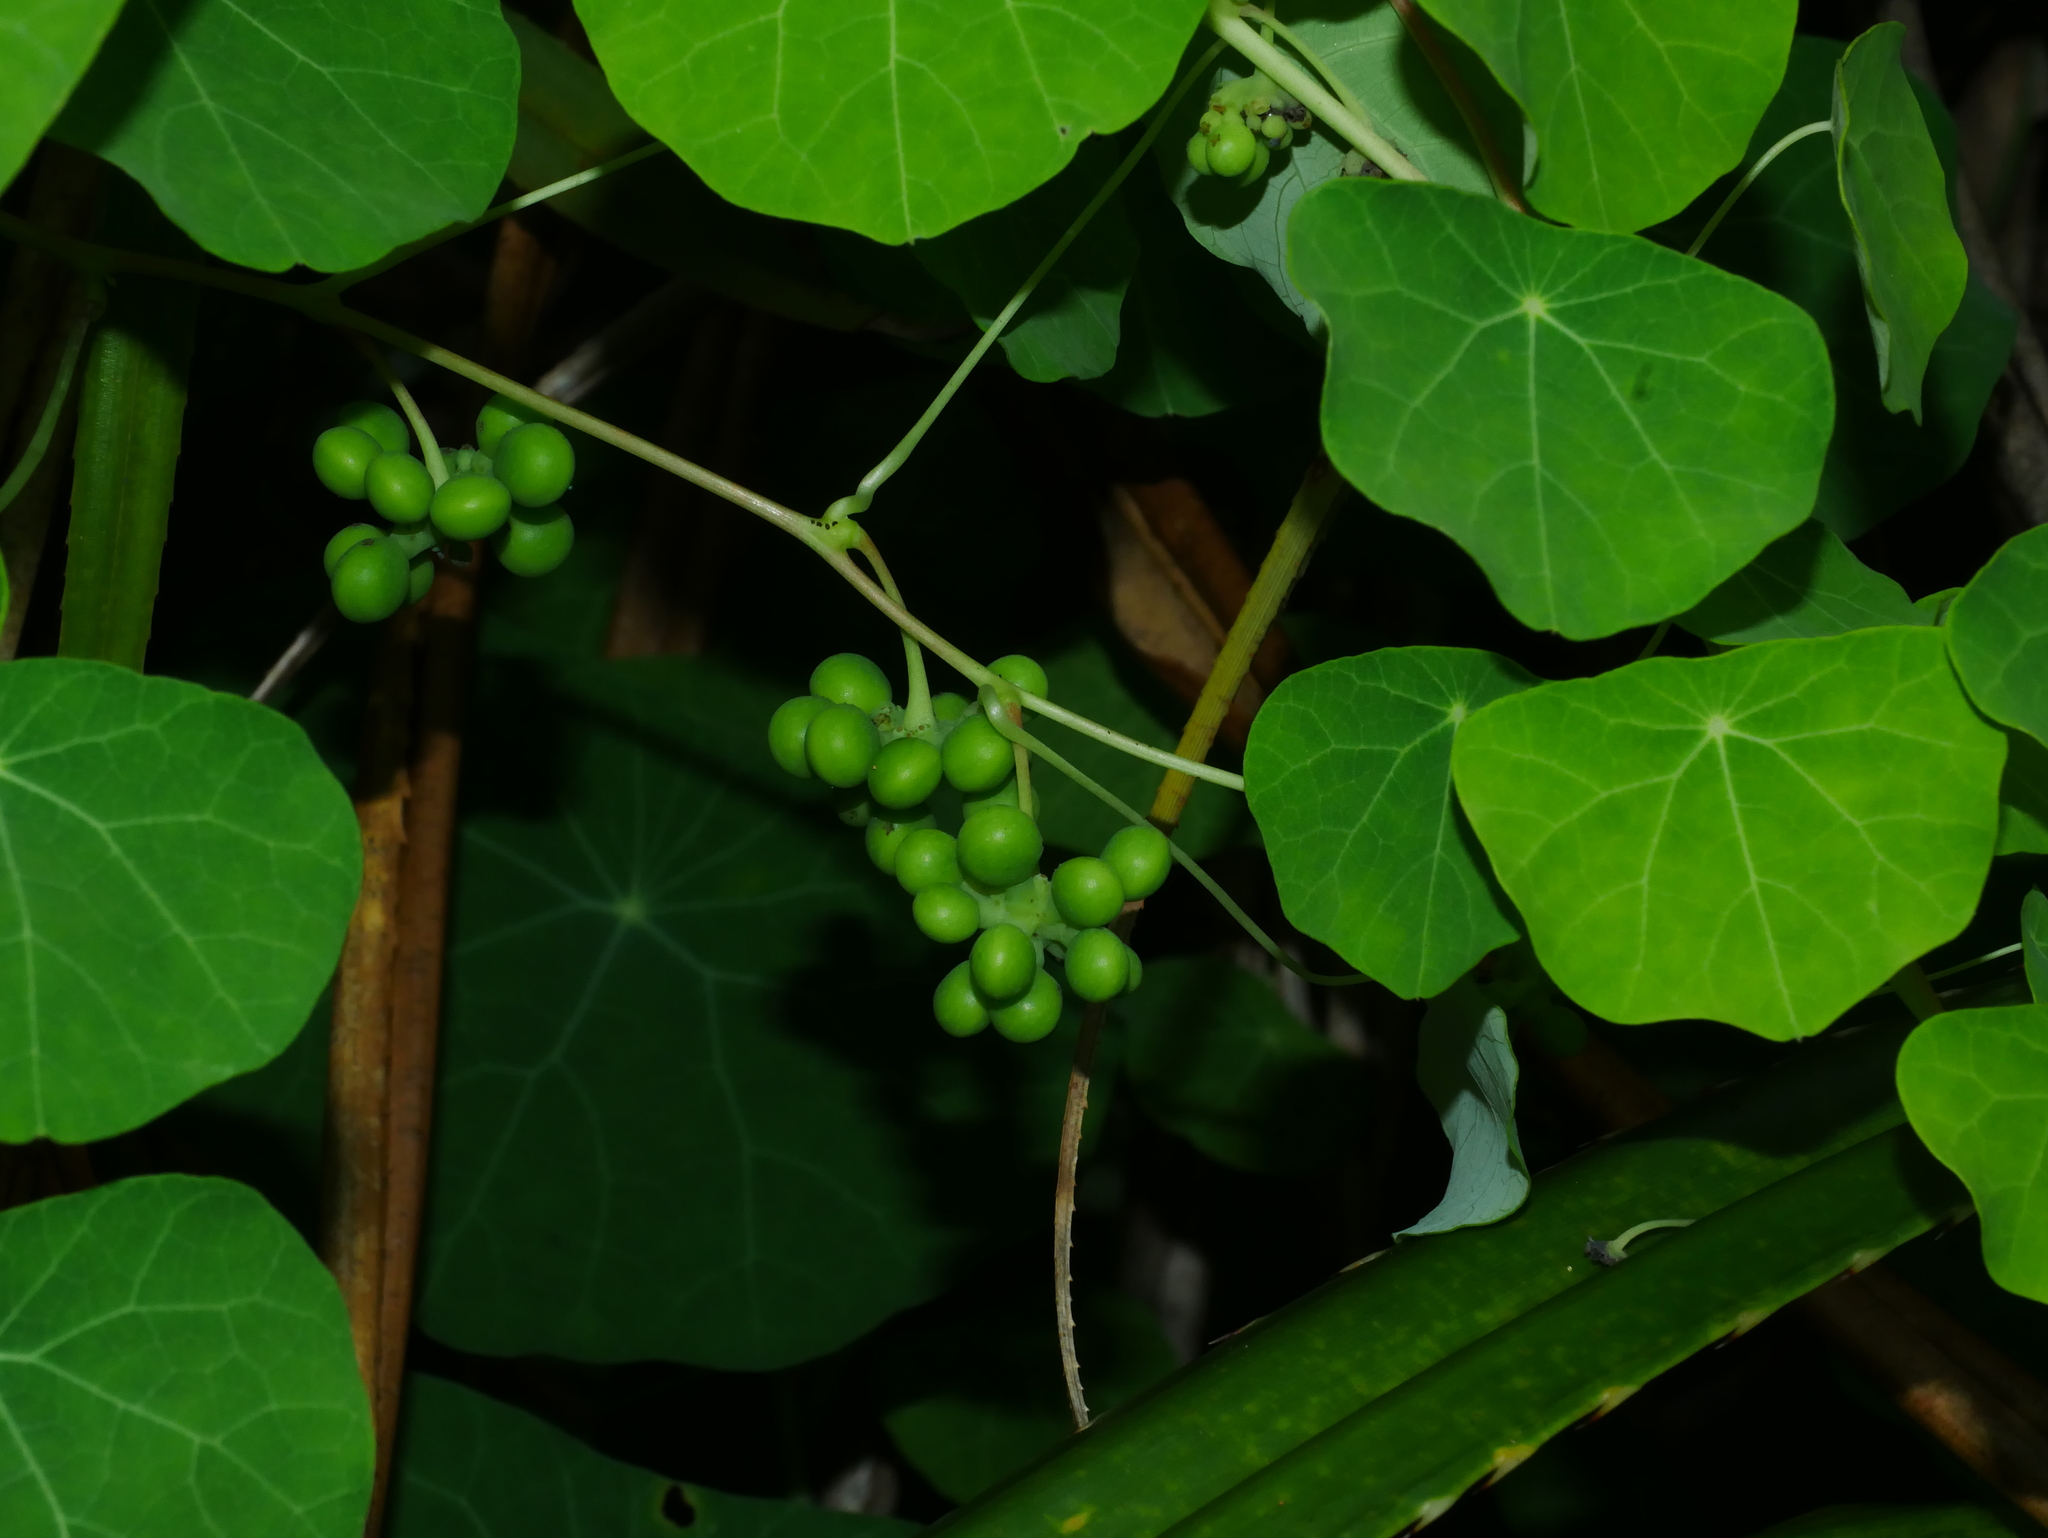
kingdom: Plantae
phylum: Tracheophyta
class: Magnoliopsida
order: Ranunculales
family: Menispermaceae
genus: Stephania
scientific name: Stephania cephalantha
